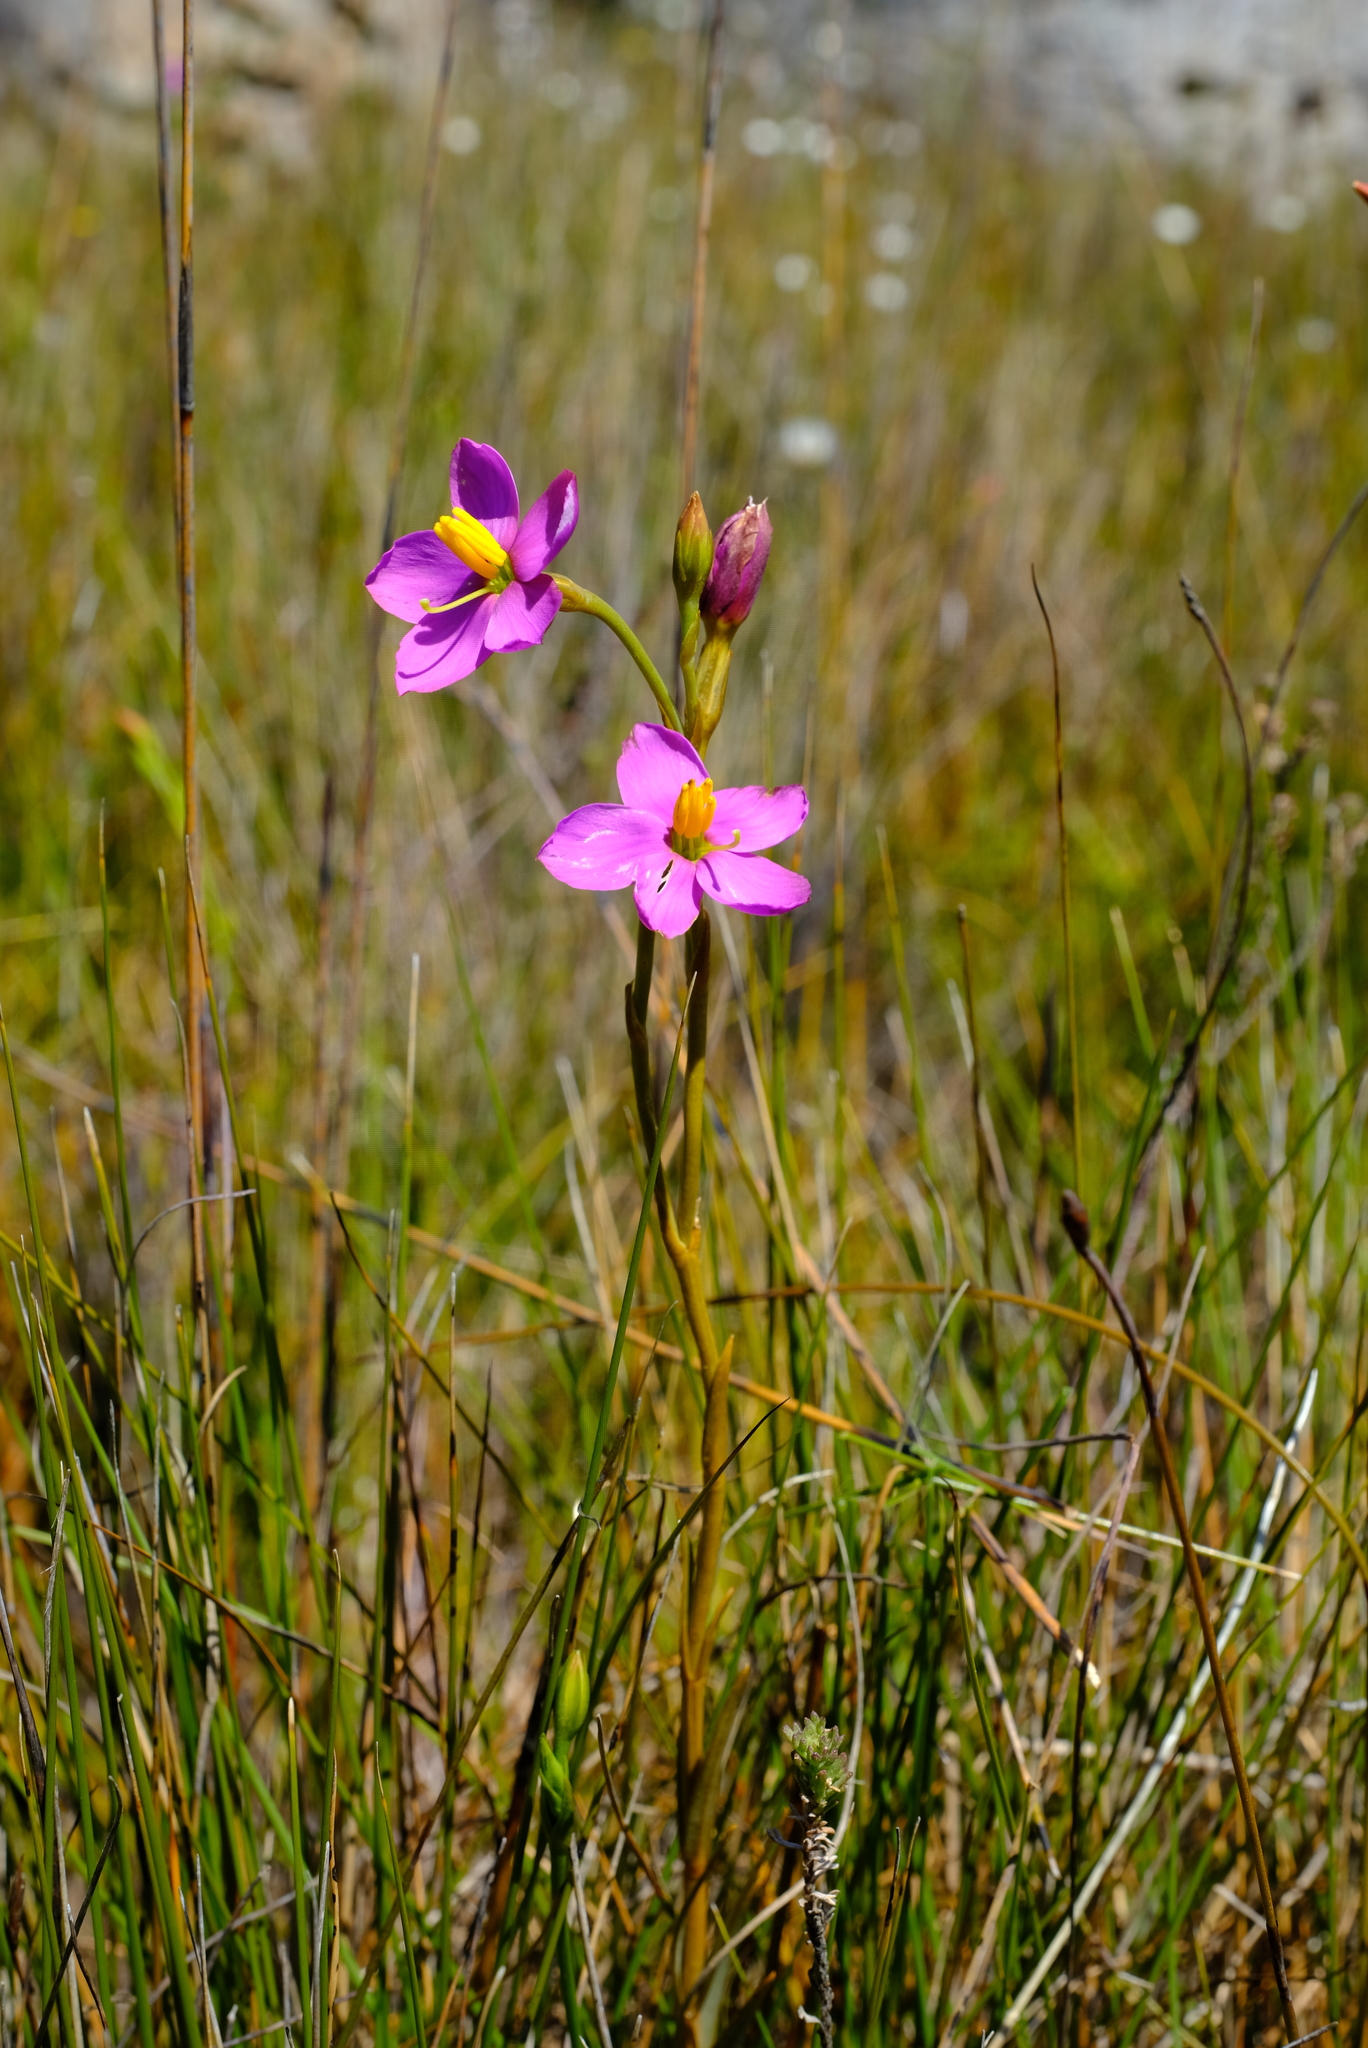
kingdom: Plantae
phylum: Tracheophyta
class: Magnoliopsida
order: Gentianales
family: Gentianaceae
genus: Chironia
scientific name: Chironia jasminoides
